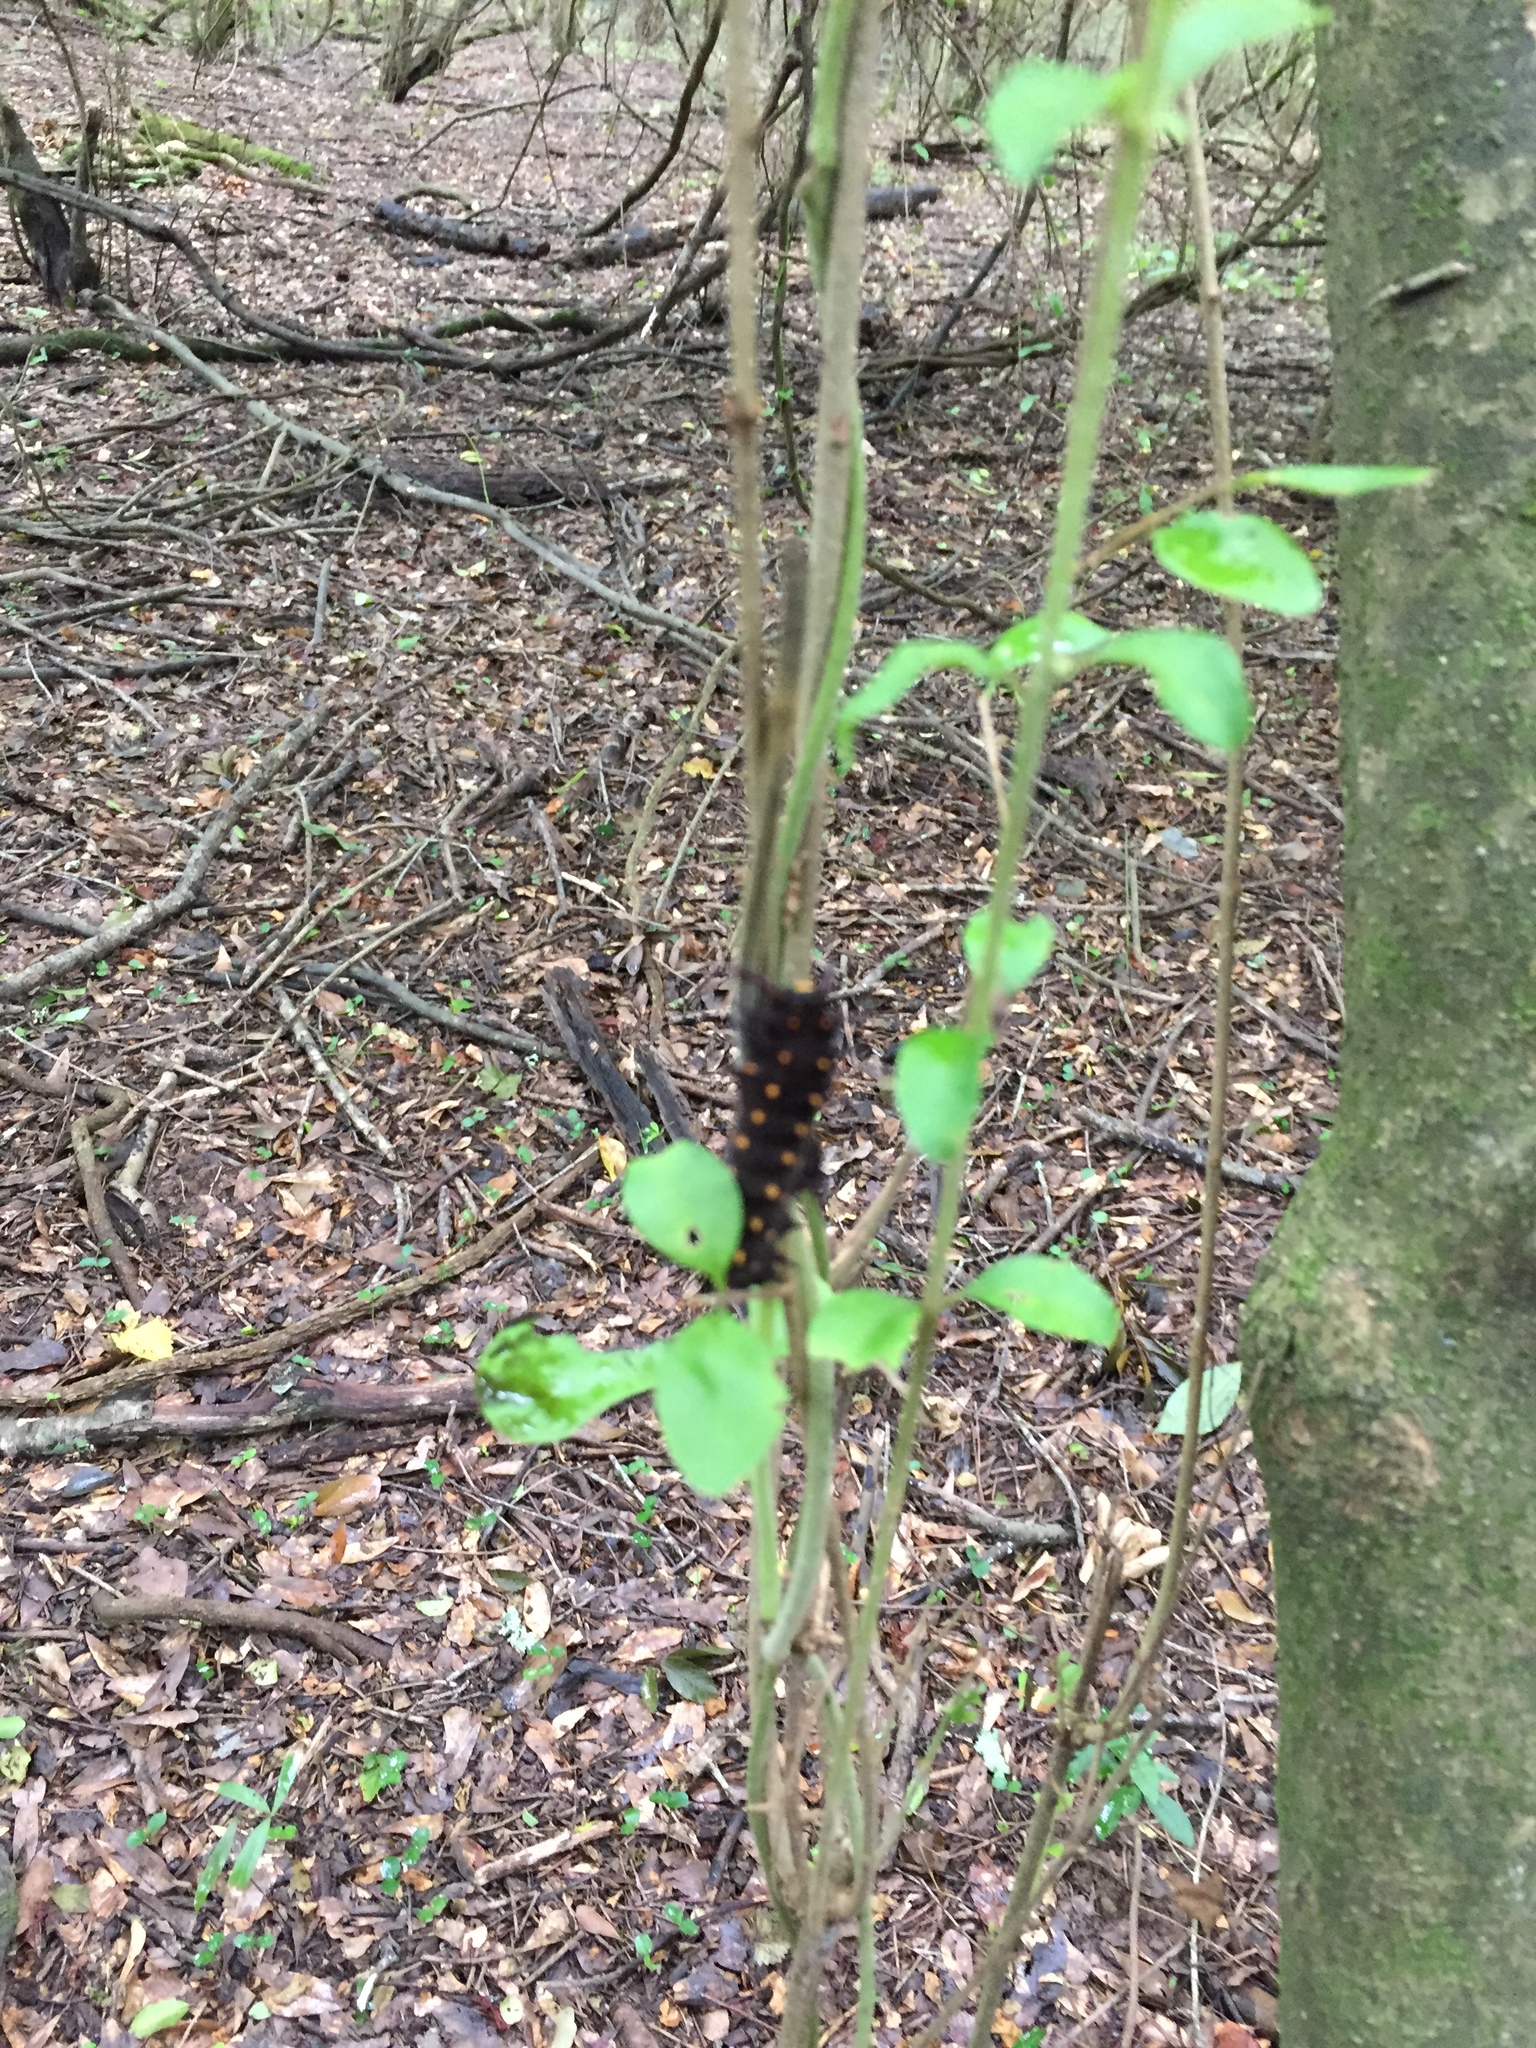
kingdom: Animalia
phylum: Arthropoda
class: Insecta
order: Lepidoptera
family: Papilionidae
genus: Battus
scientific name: Battus philenor
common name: Pipevine swallowtail
